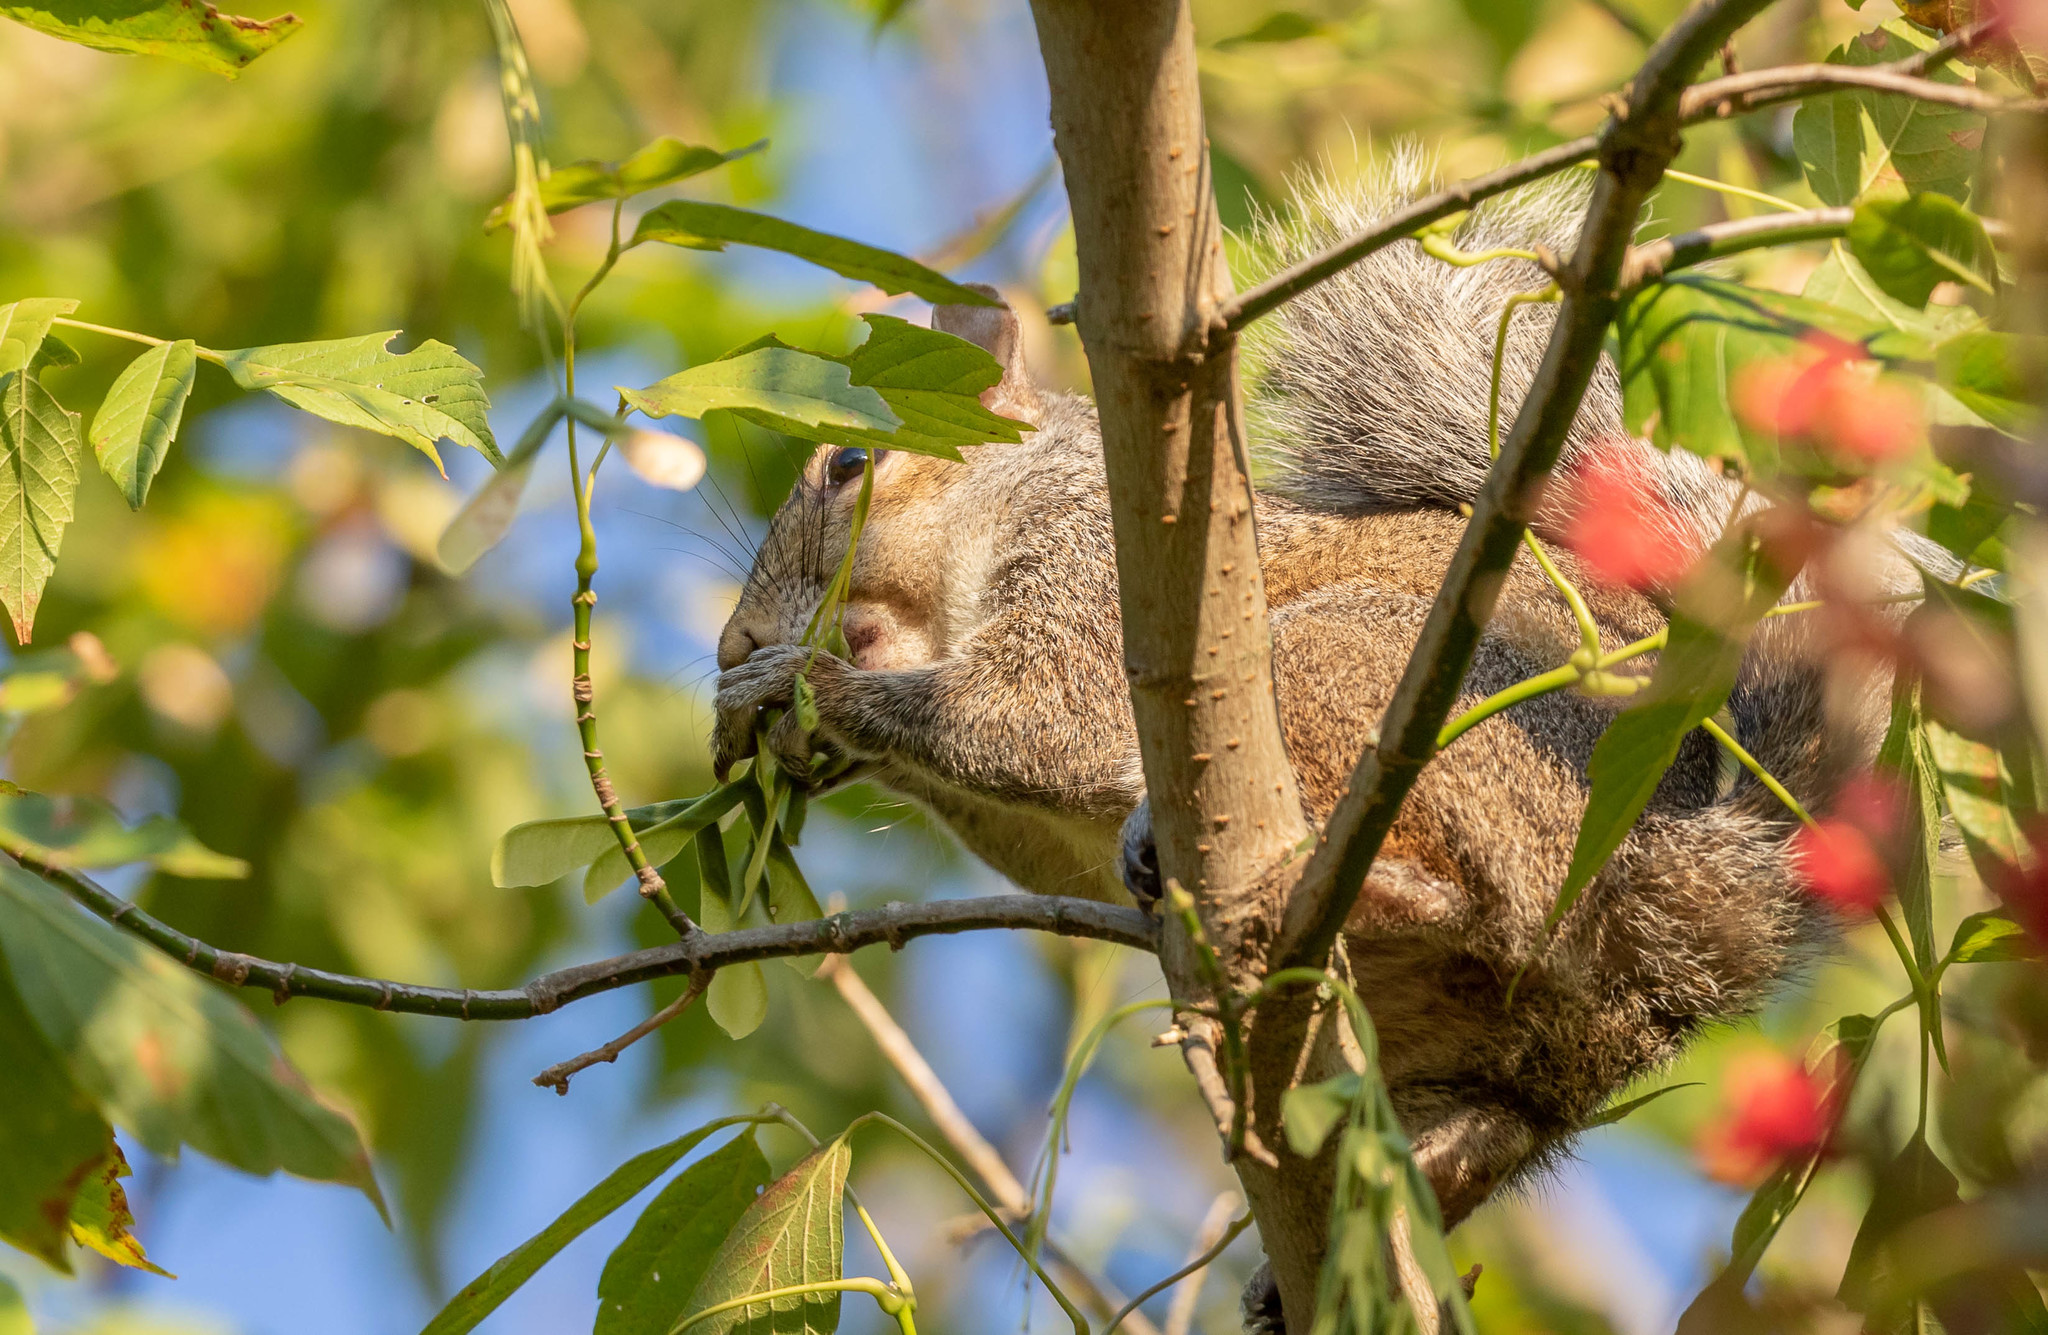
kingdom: Animalia
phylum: Chordata
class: Mammalia
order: Rodentia
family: Sciuridae
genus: Sciurus
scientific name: Sciurus carolinensis
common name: Eastern gray squirrel
